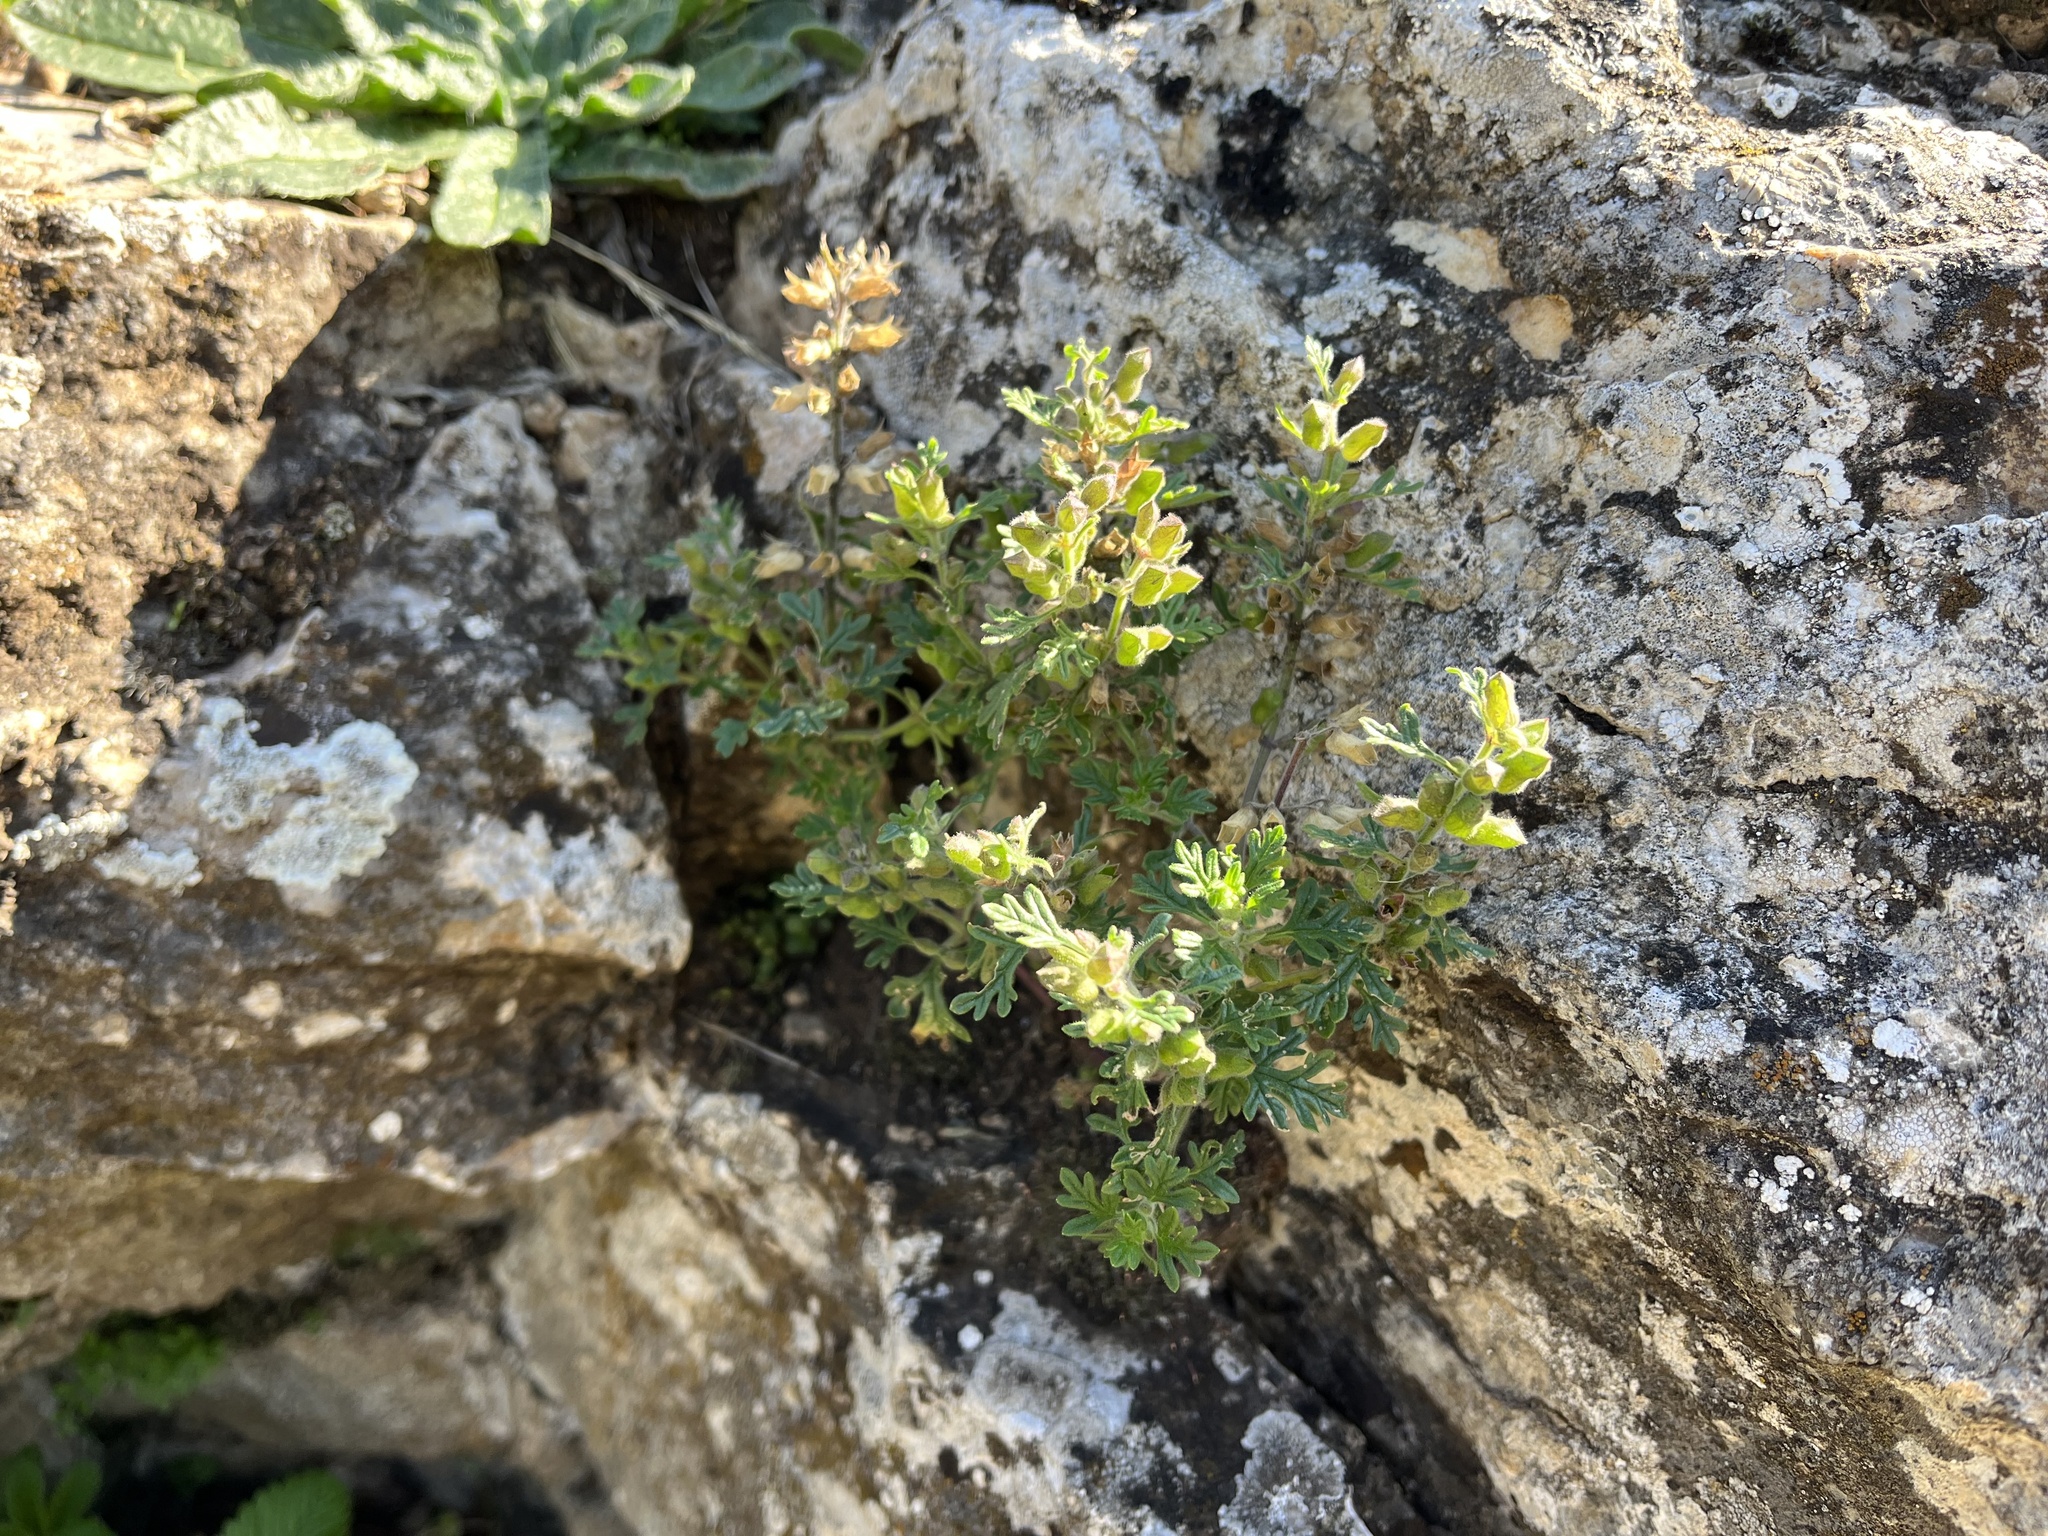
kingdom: Plantae
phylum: Tracheophyta
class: Magnoliopsida
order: Lamiales
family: Lamiaceae
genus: Teucrium
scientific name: Teucrium botrys
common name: Cut-leaved germander
